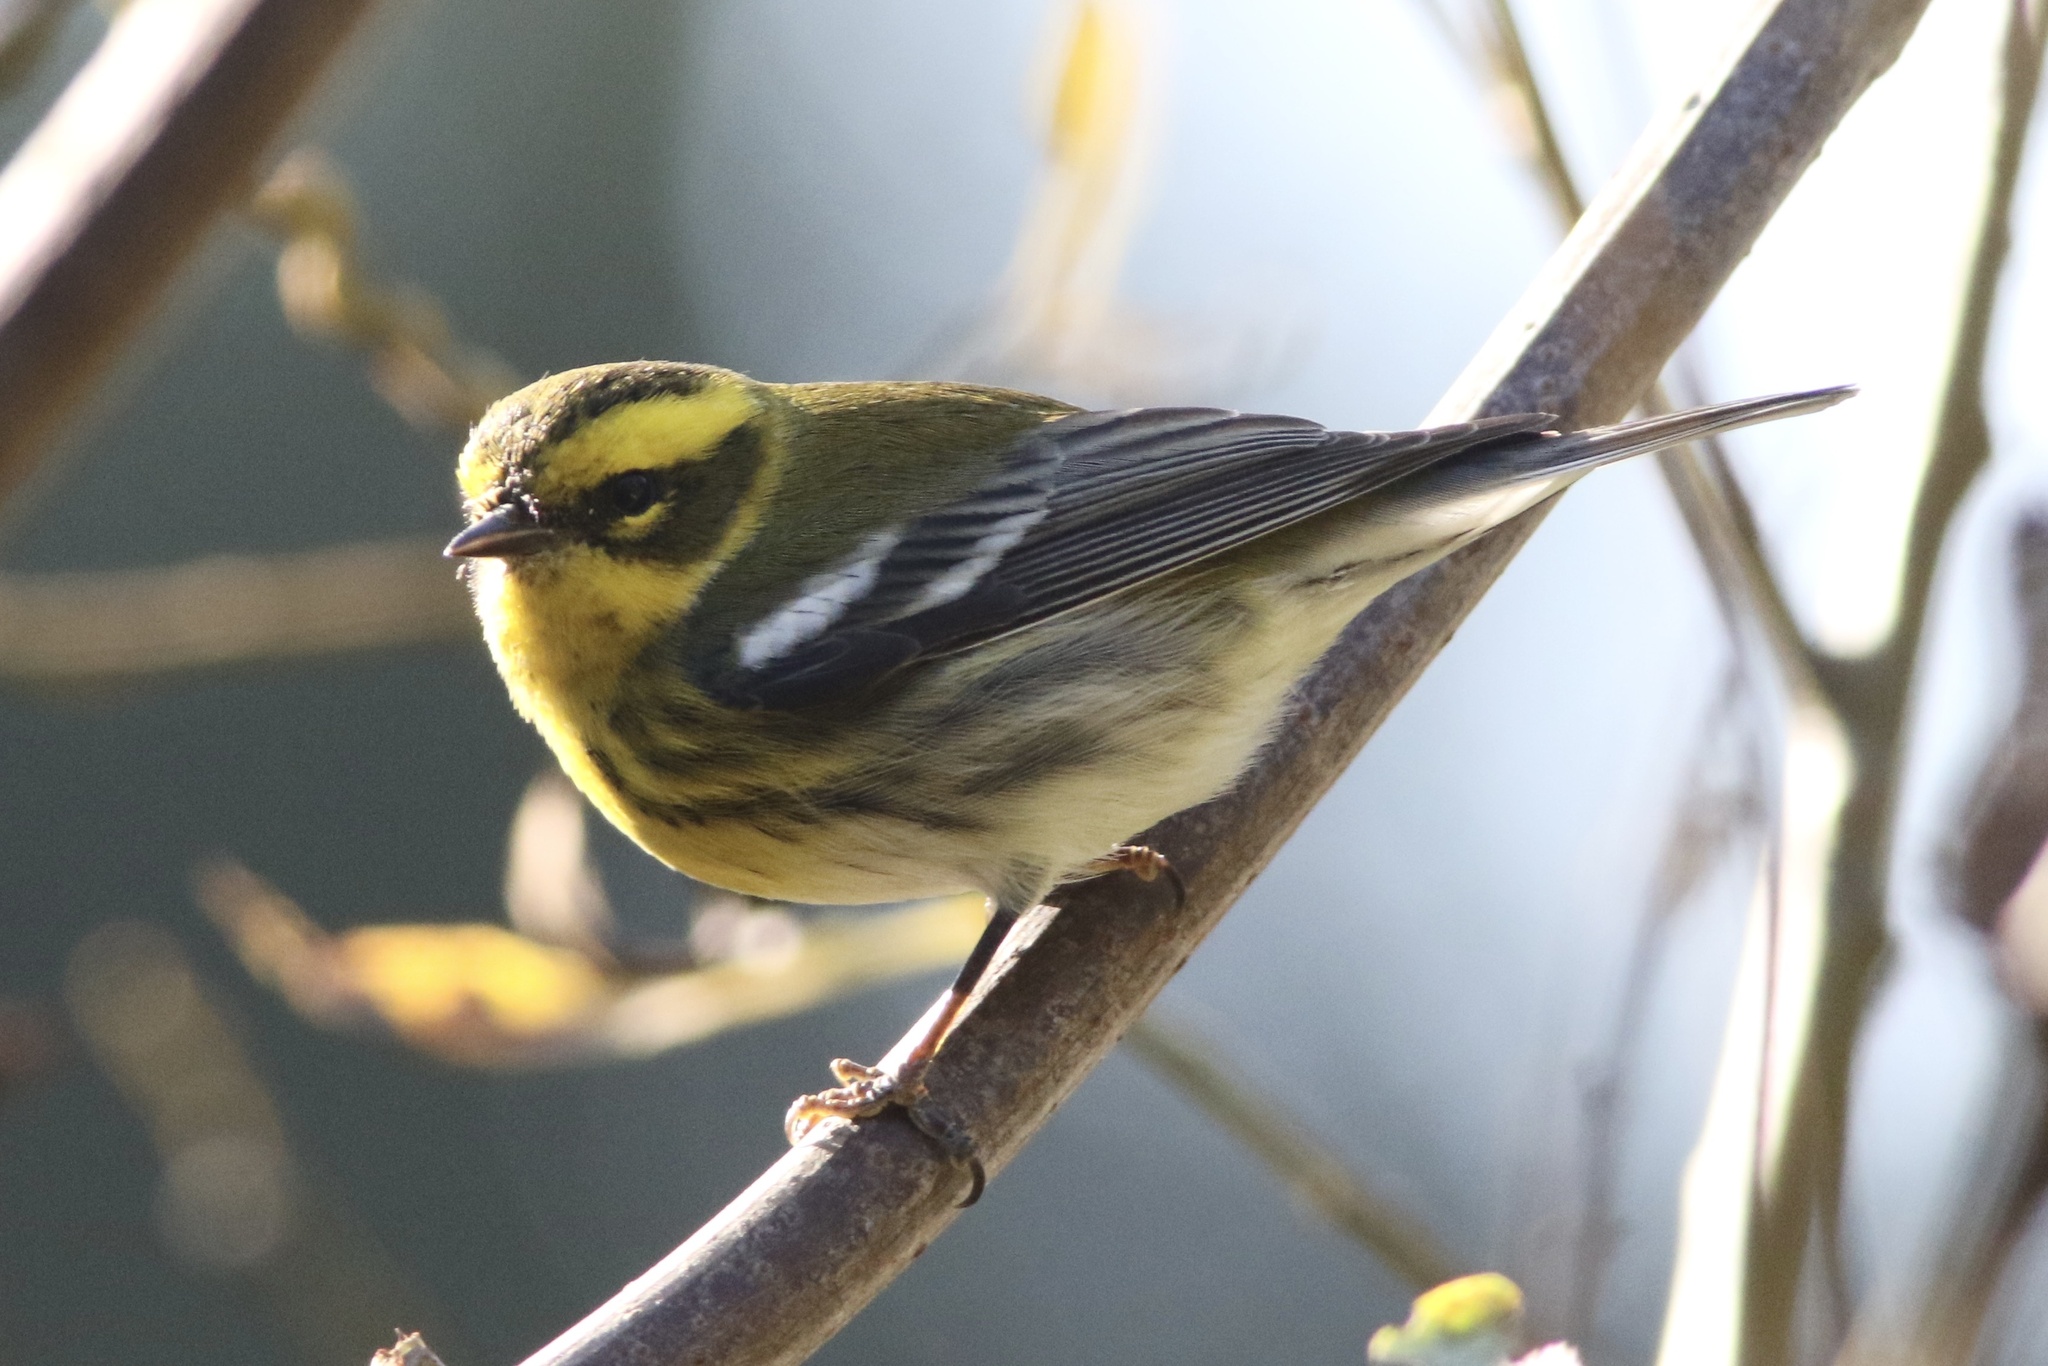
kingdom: Animalia
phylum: Chordata
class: Aves
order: Passeriformes
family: Parulidae
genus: Setophaga
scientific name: Setophaga townsendi
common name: Townsend's warbler
